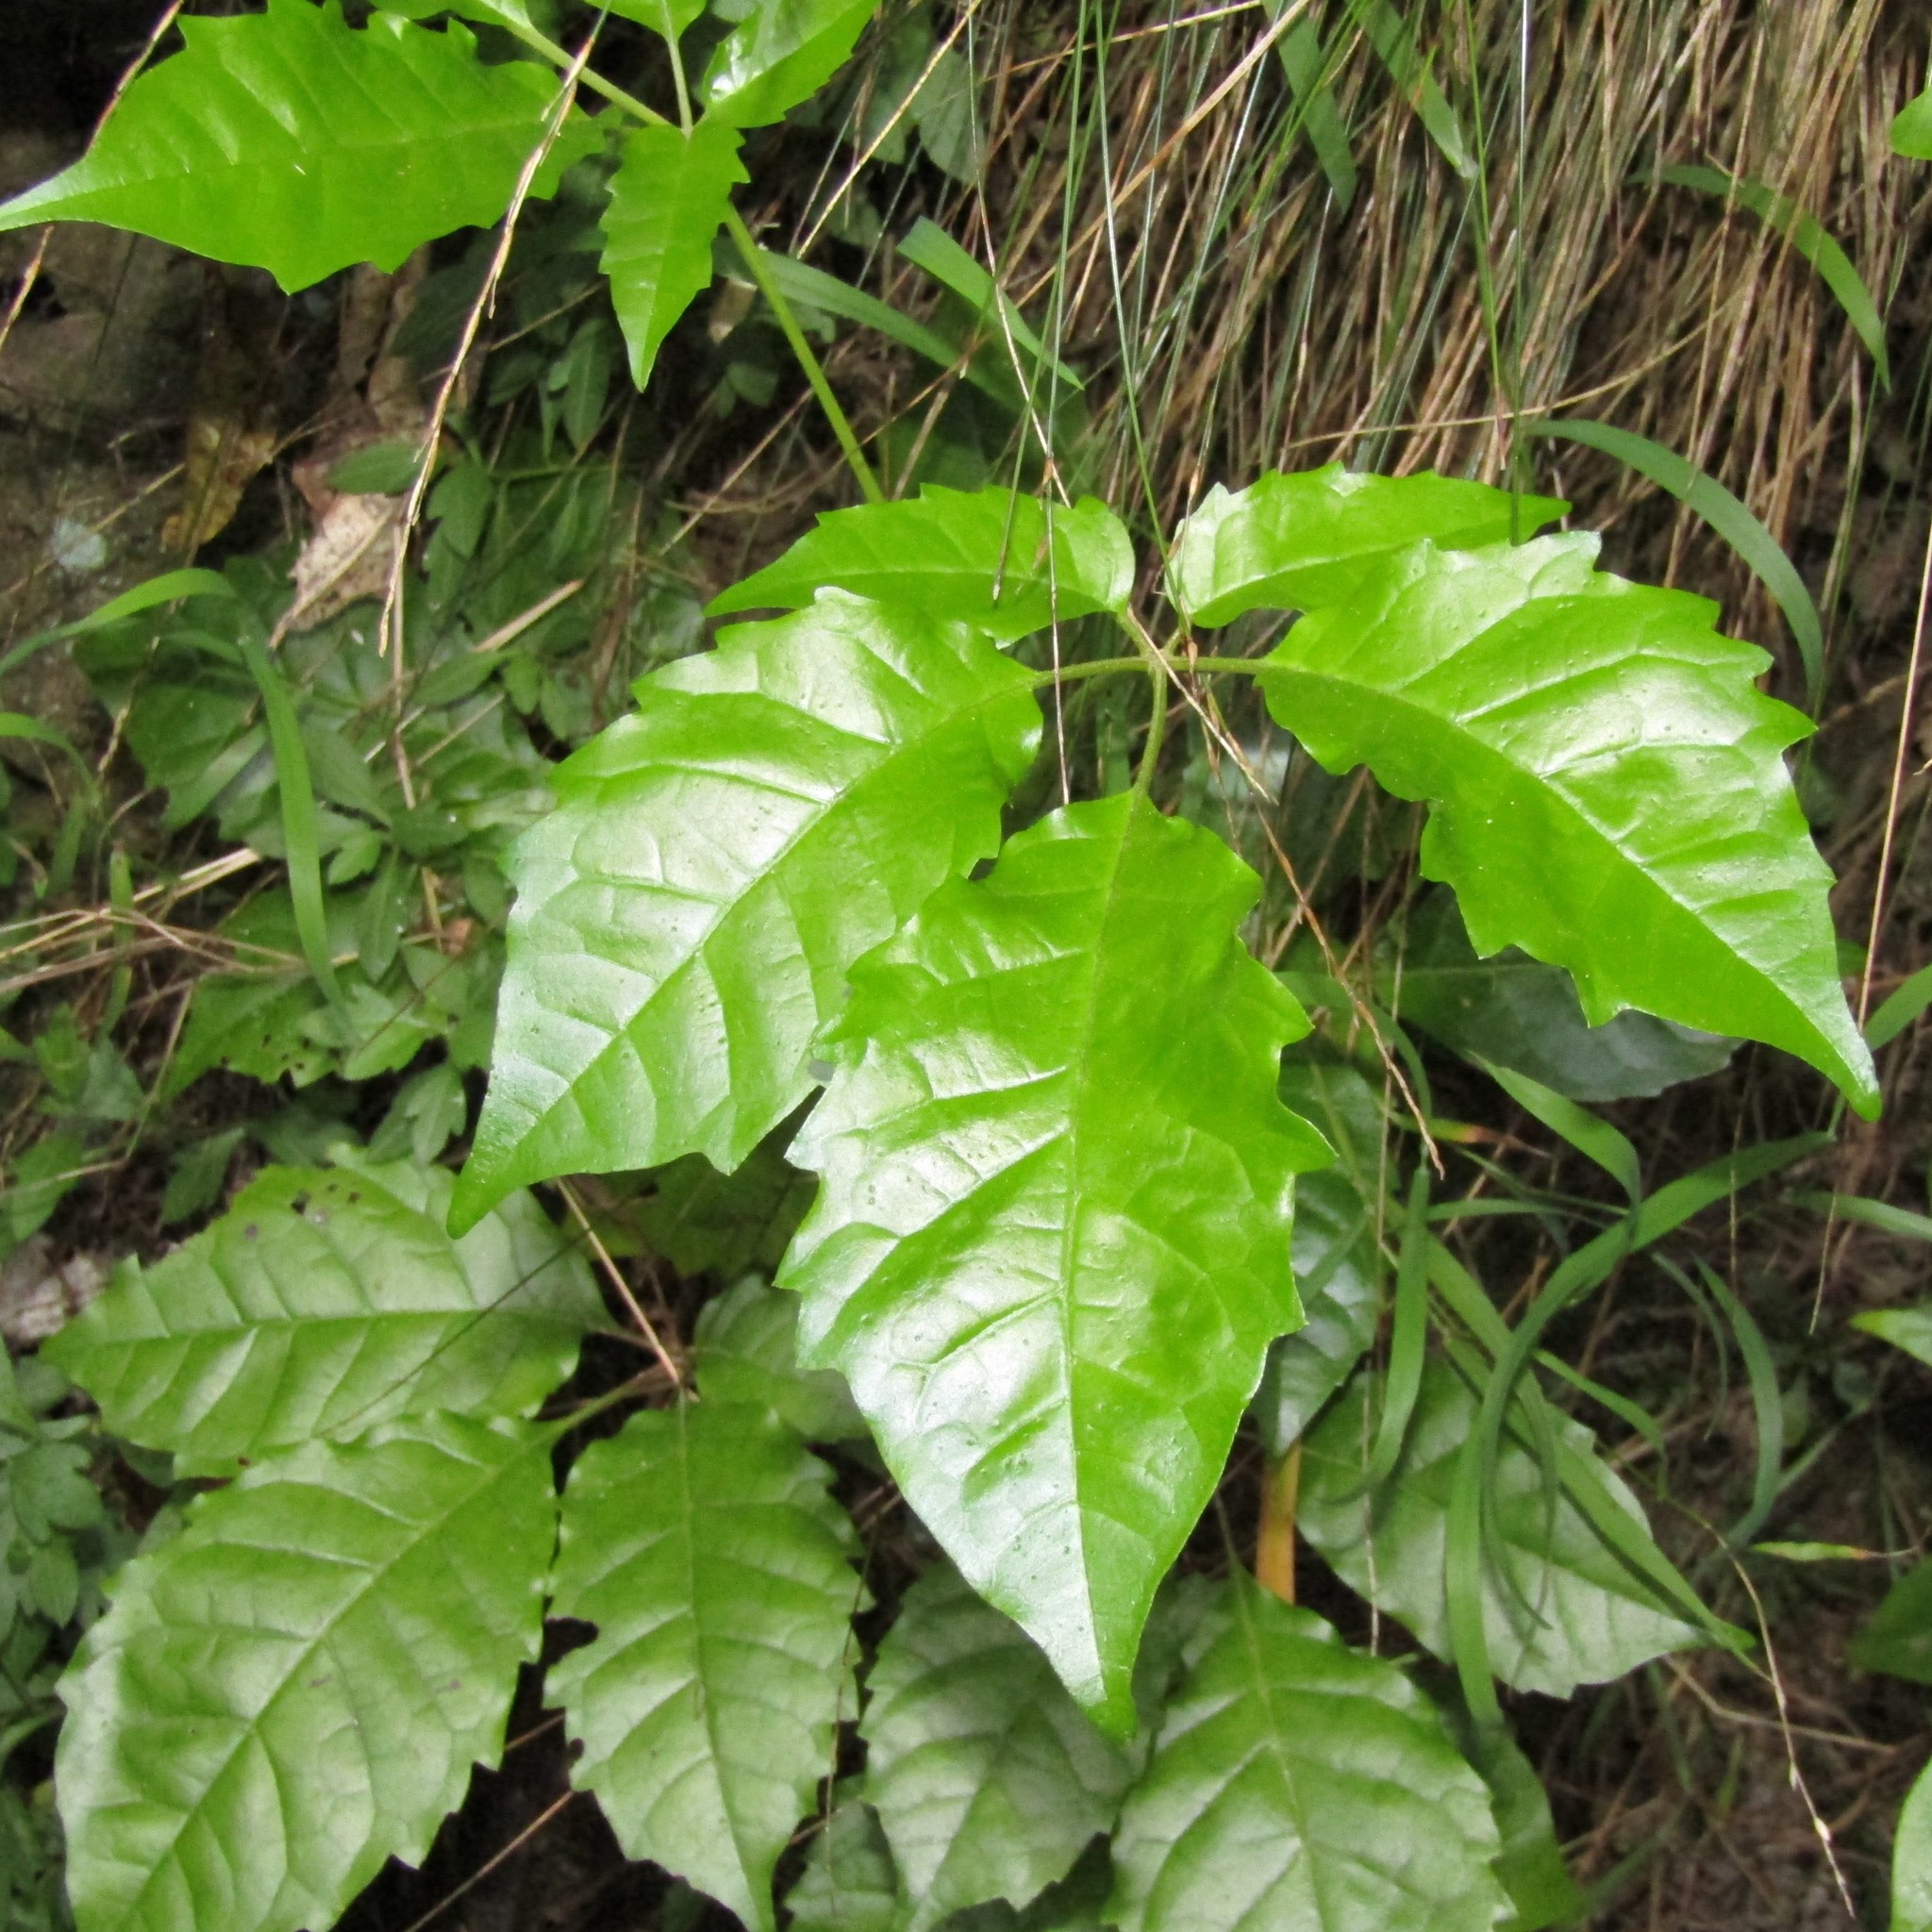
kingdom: Plantae
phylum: Tracheophyta
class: Magnoliopsida
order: Lamiales
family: Lamiaceae
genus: Vitex
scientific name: Vitex lucens
